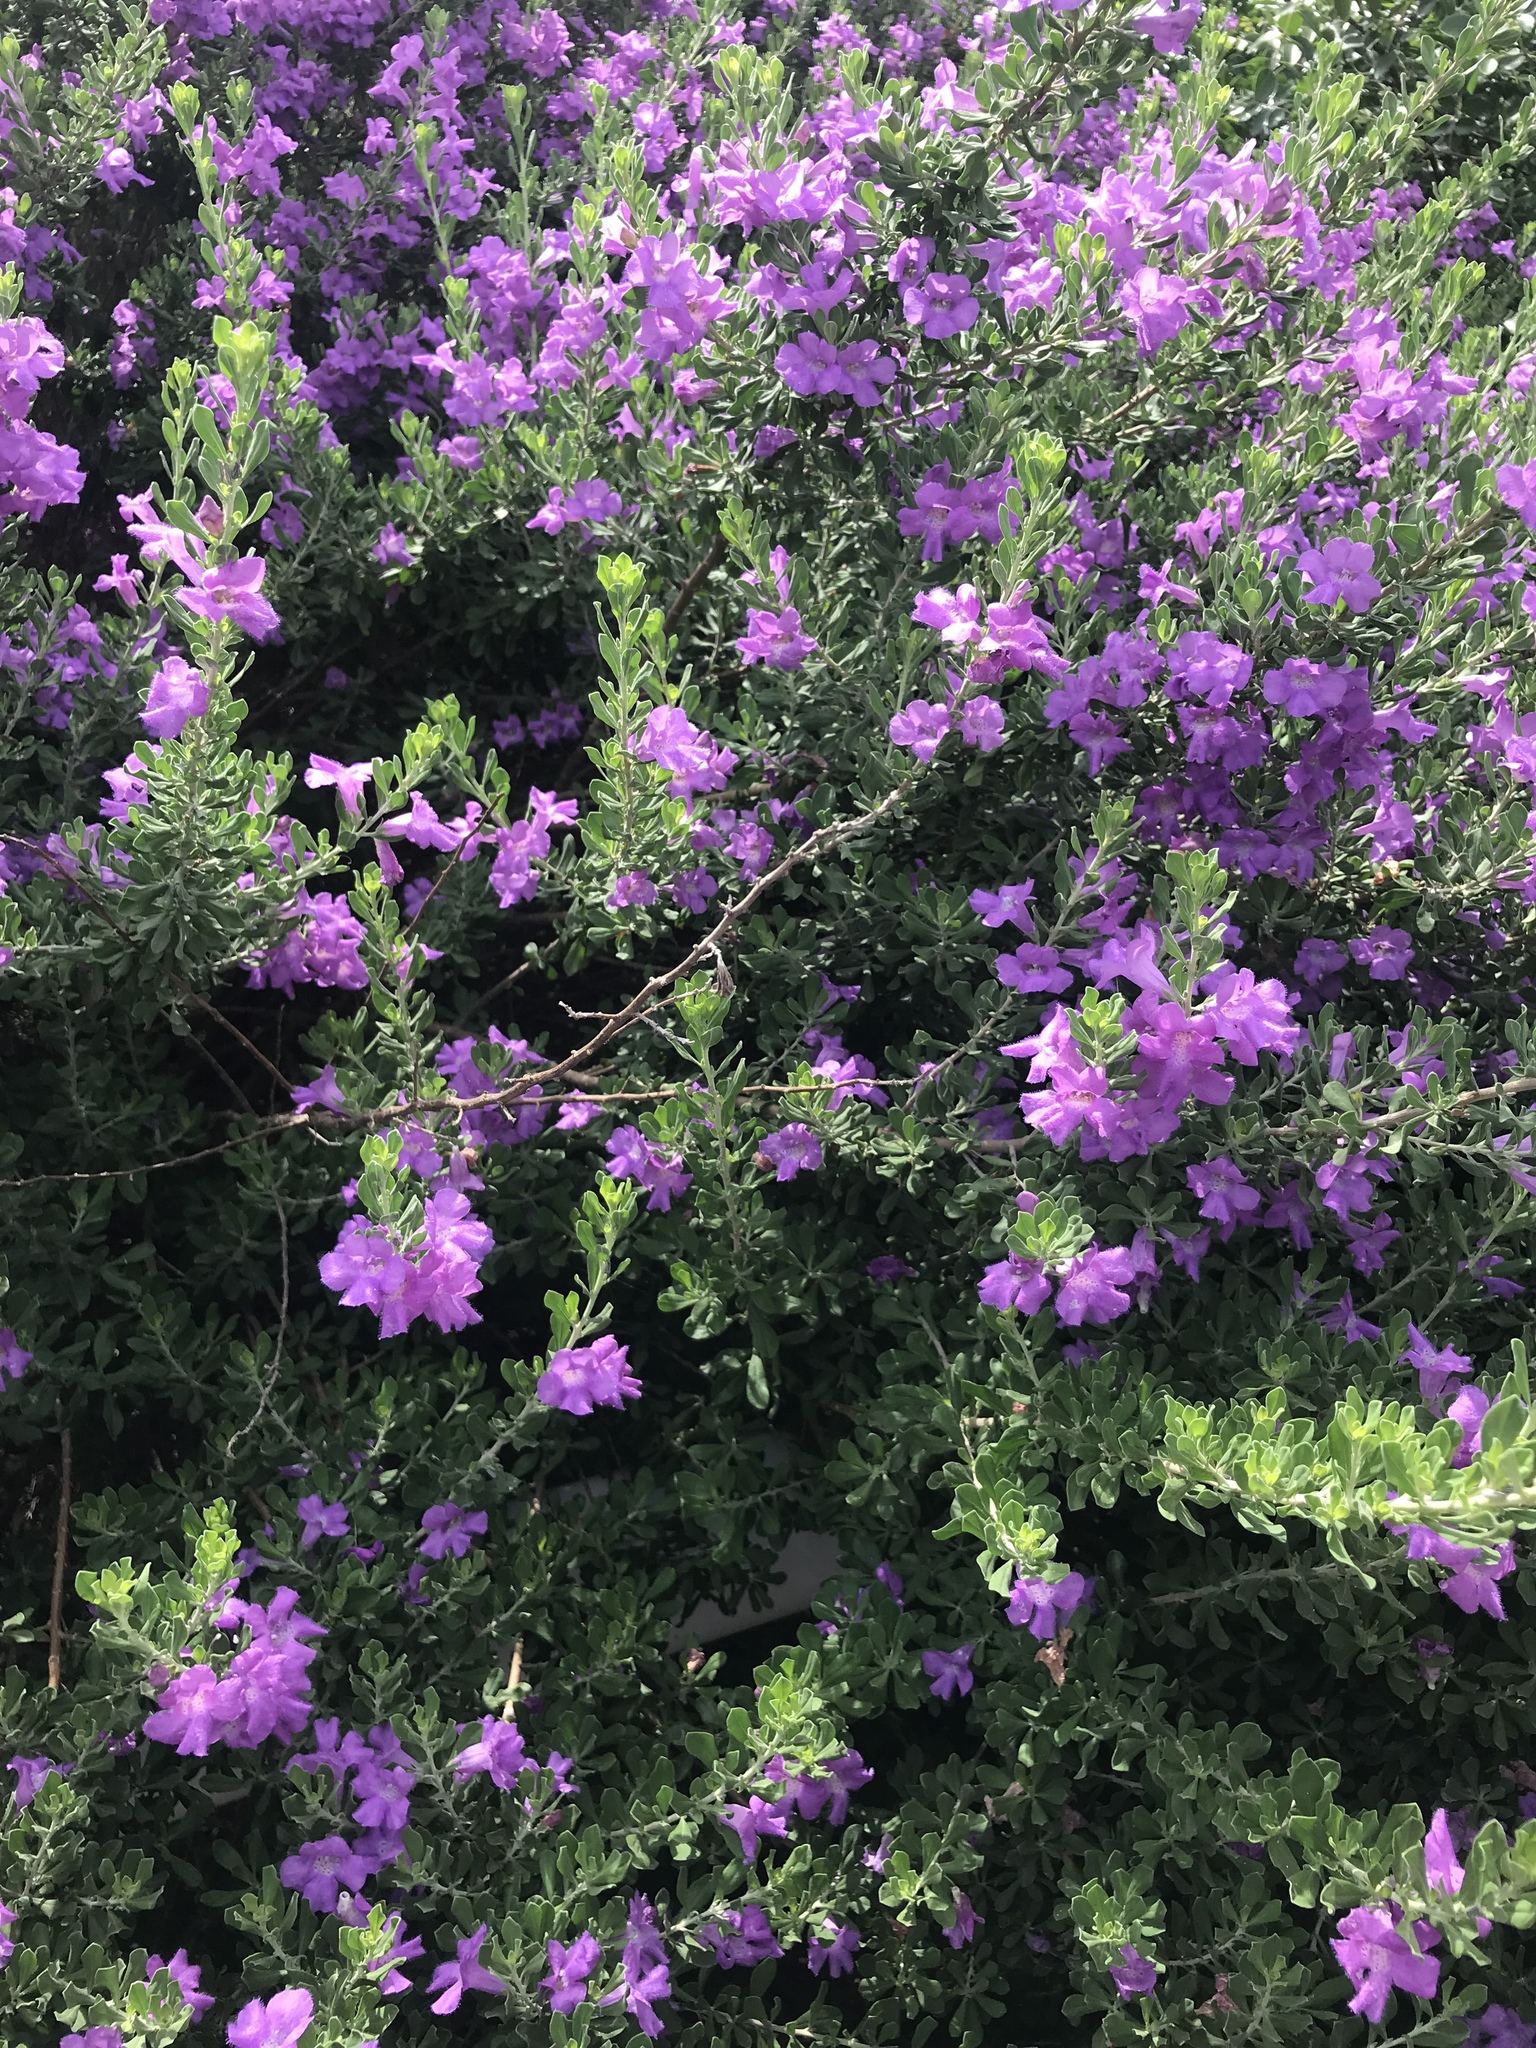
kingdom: Plantae
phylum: Tracheophyta
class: Magnoliopsida
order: Lamiales
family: Scrophulariaceae
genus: Leucophyllum
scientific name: Leucophyllum frutescens
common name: Texas silverleaf
